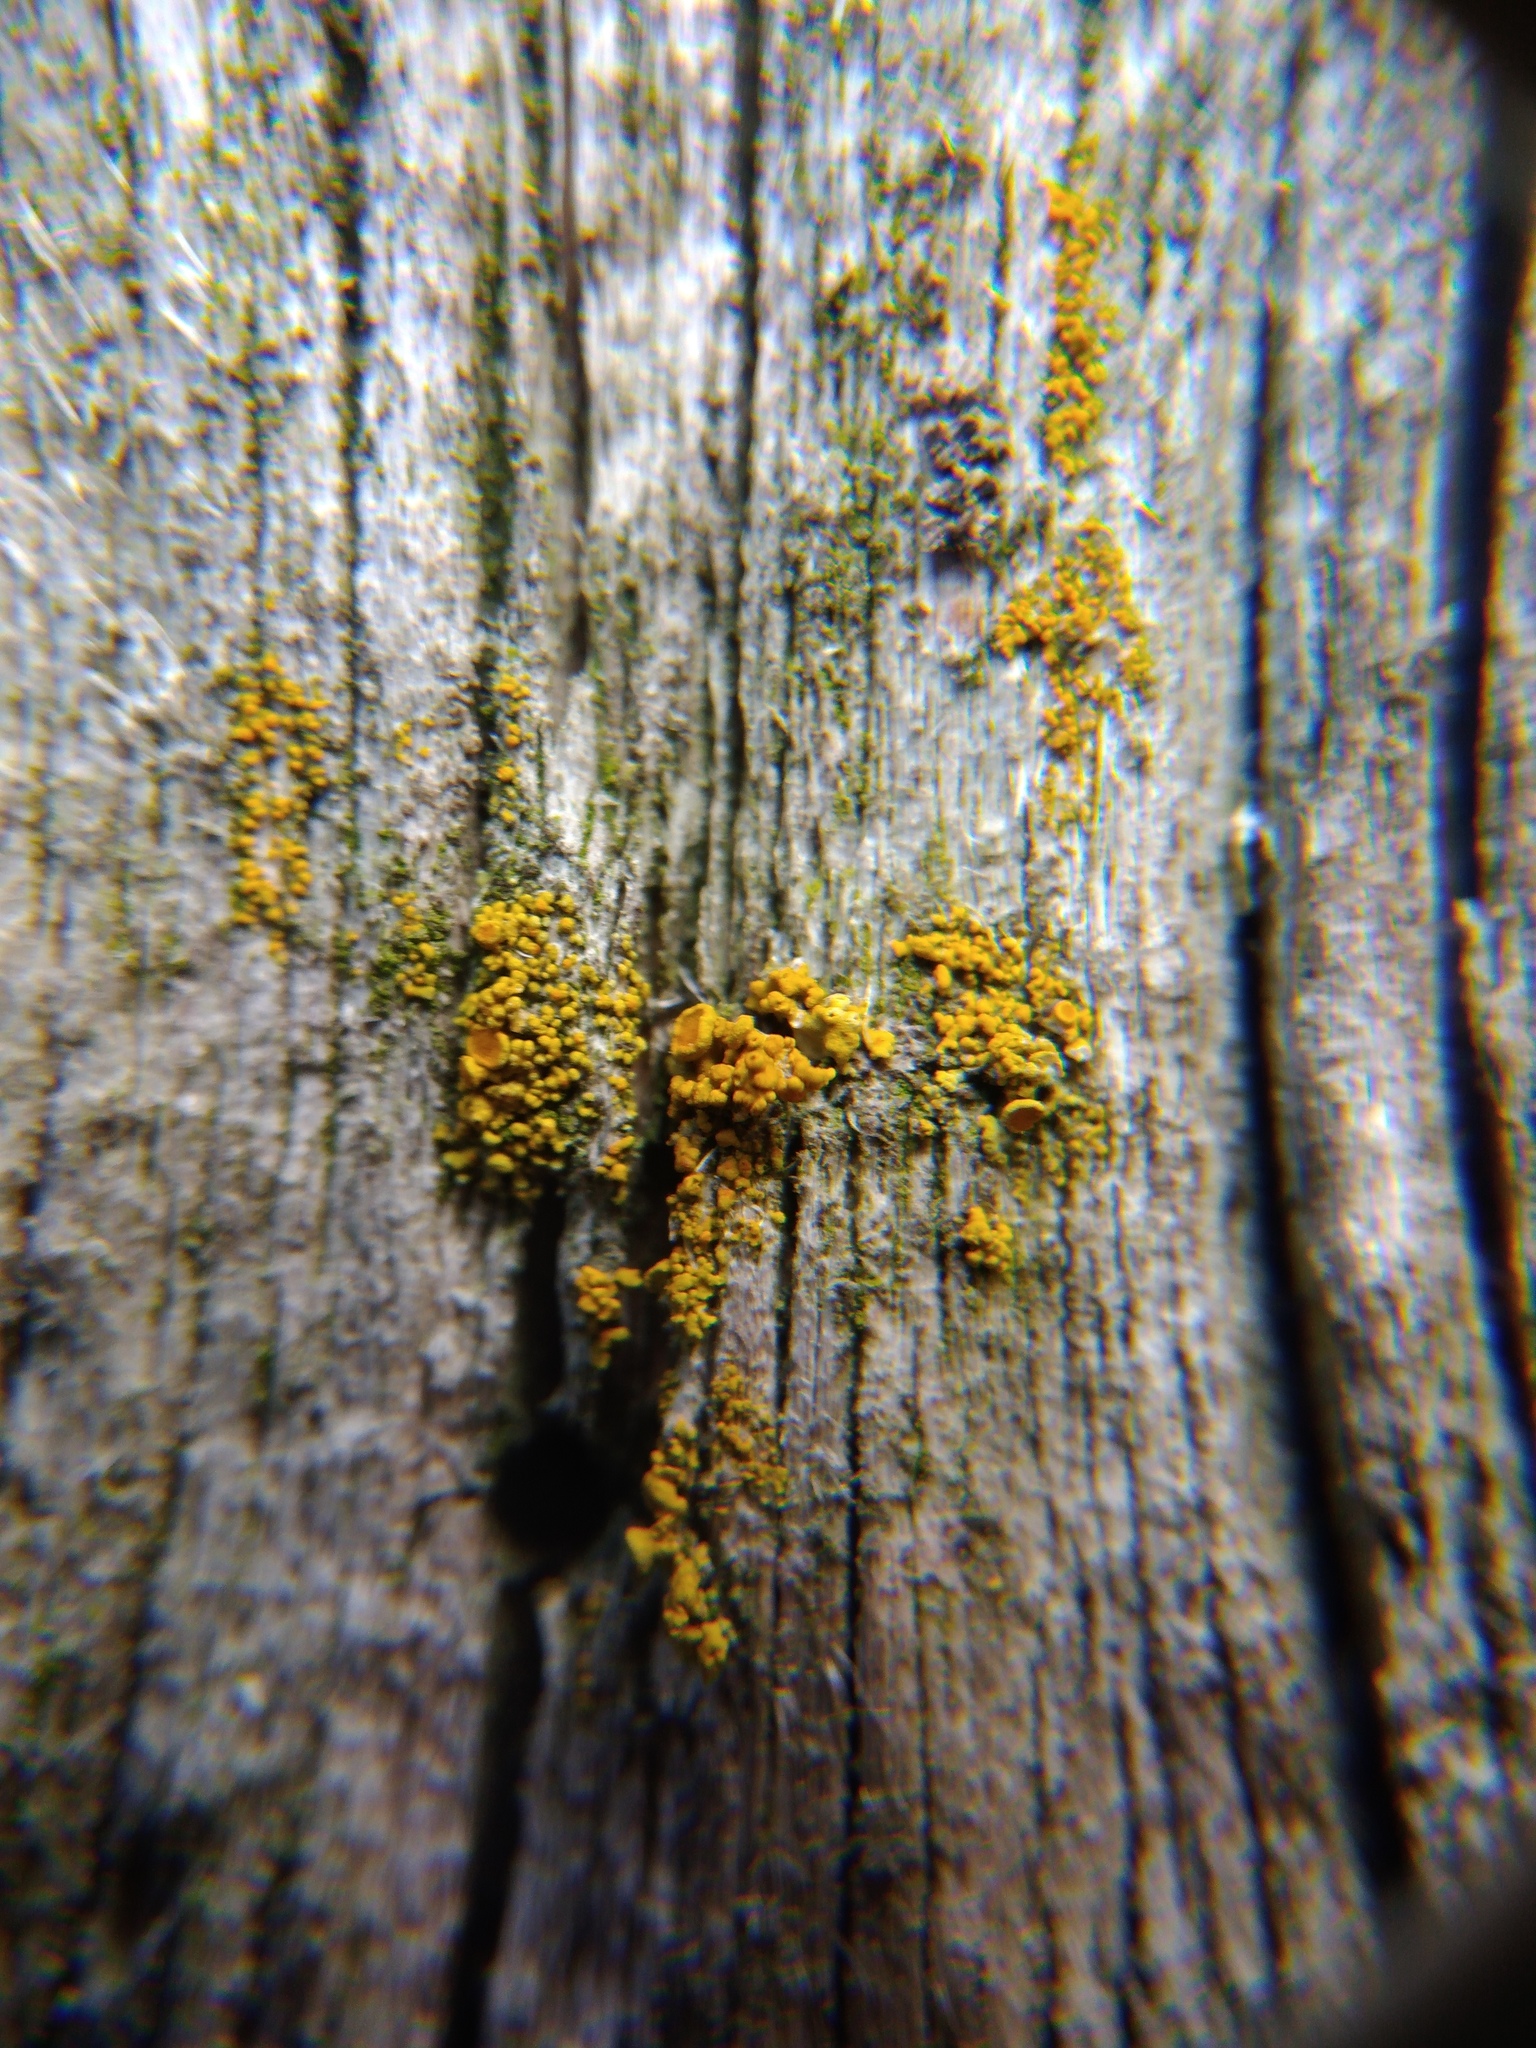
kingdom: Fungi
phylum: Ascomycota
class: Lecanoromycetes
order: Teloschistales
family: Teloschistaceae
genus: Polycauliona
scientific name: Polycauliona polycarpa
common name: Pin-cushion sunburst lichen
